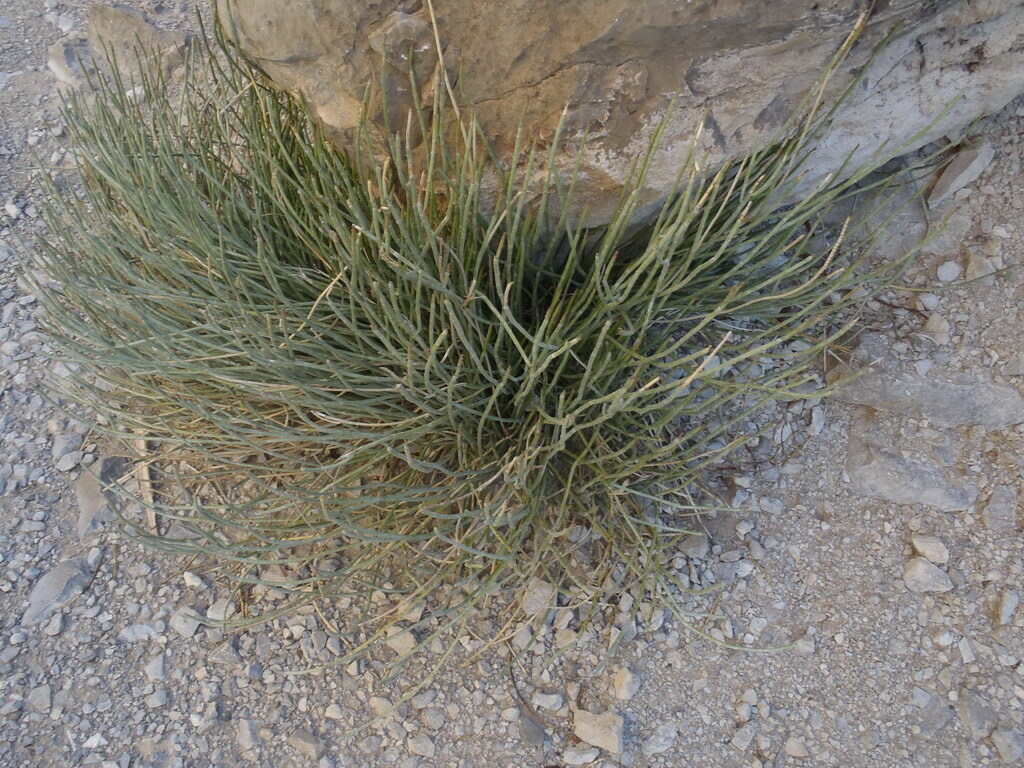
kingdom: Plantae
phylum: Tracheophyta
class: Magnoliopsida
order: Malpighiales
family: Euphorbiaceae
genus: Euphorbia
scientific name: Euphorbia antisyphilitica
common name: Candelilla
